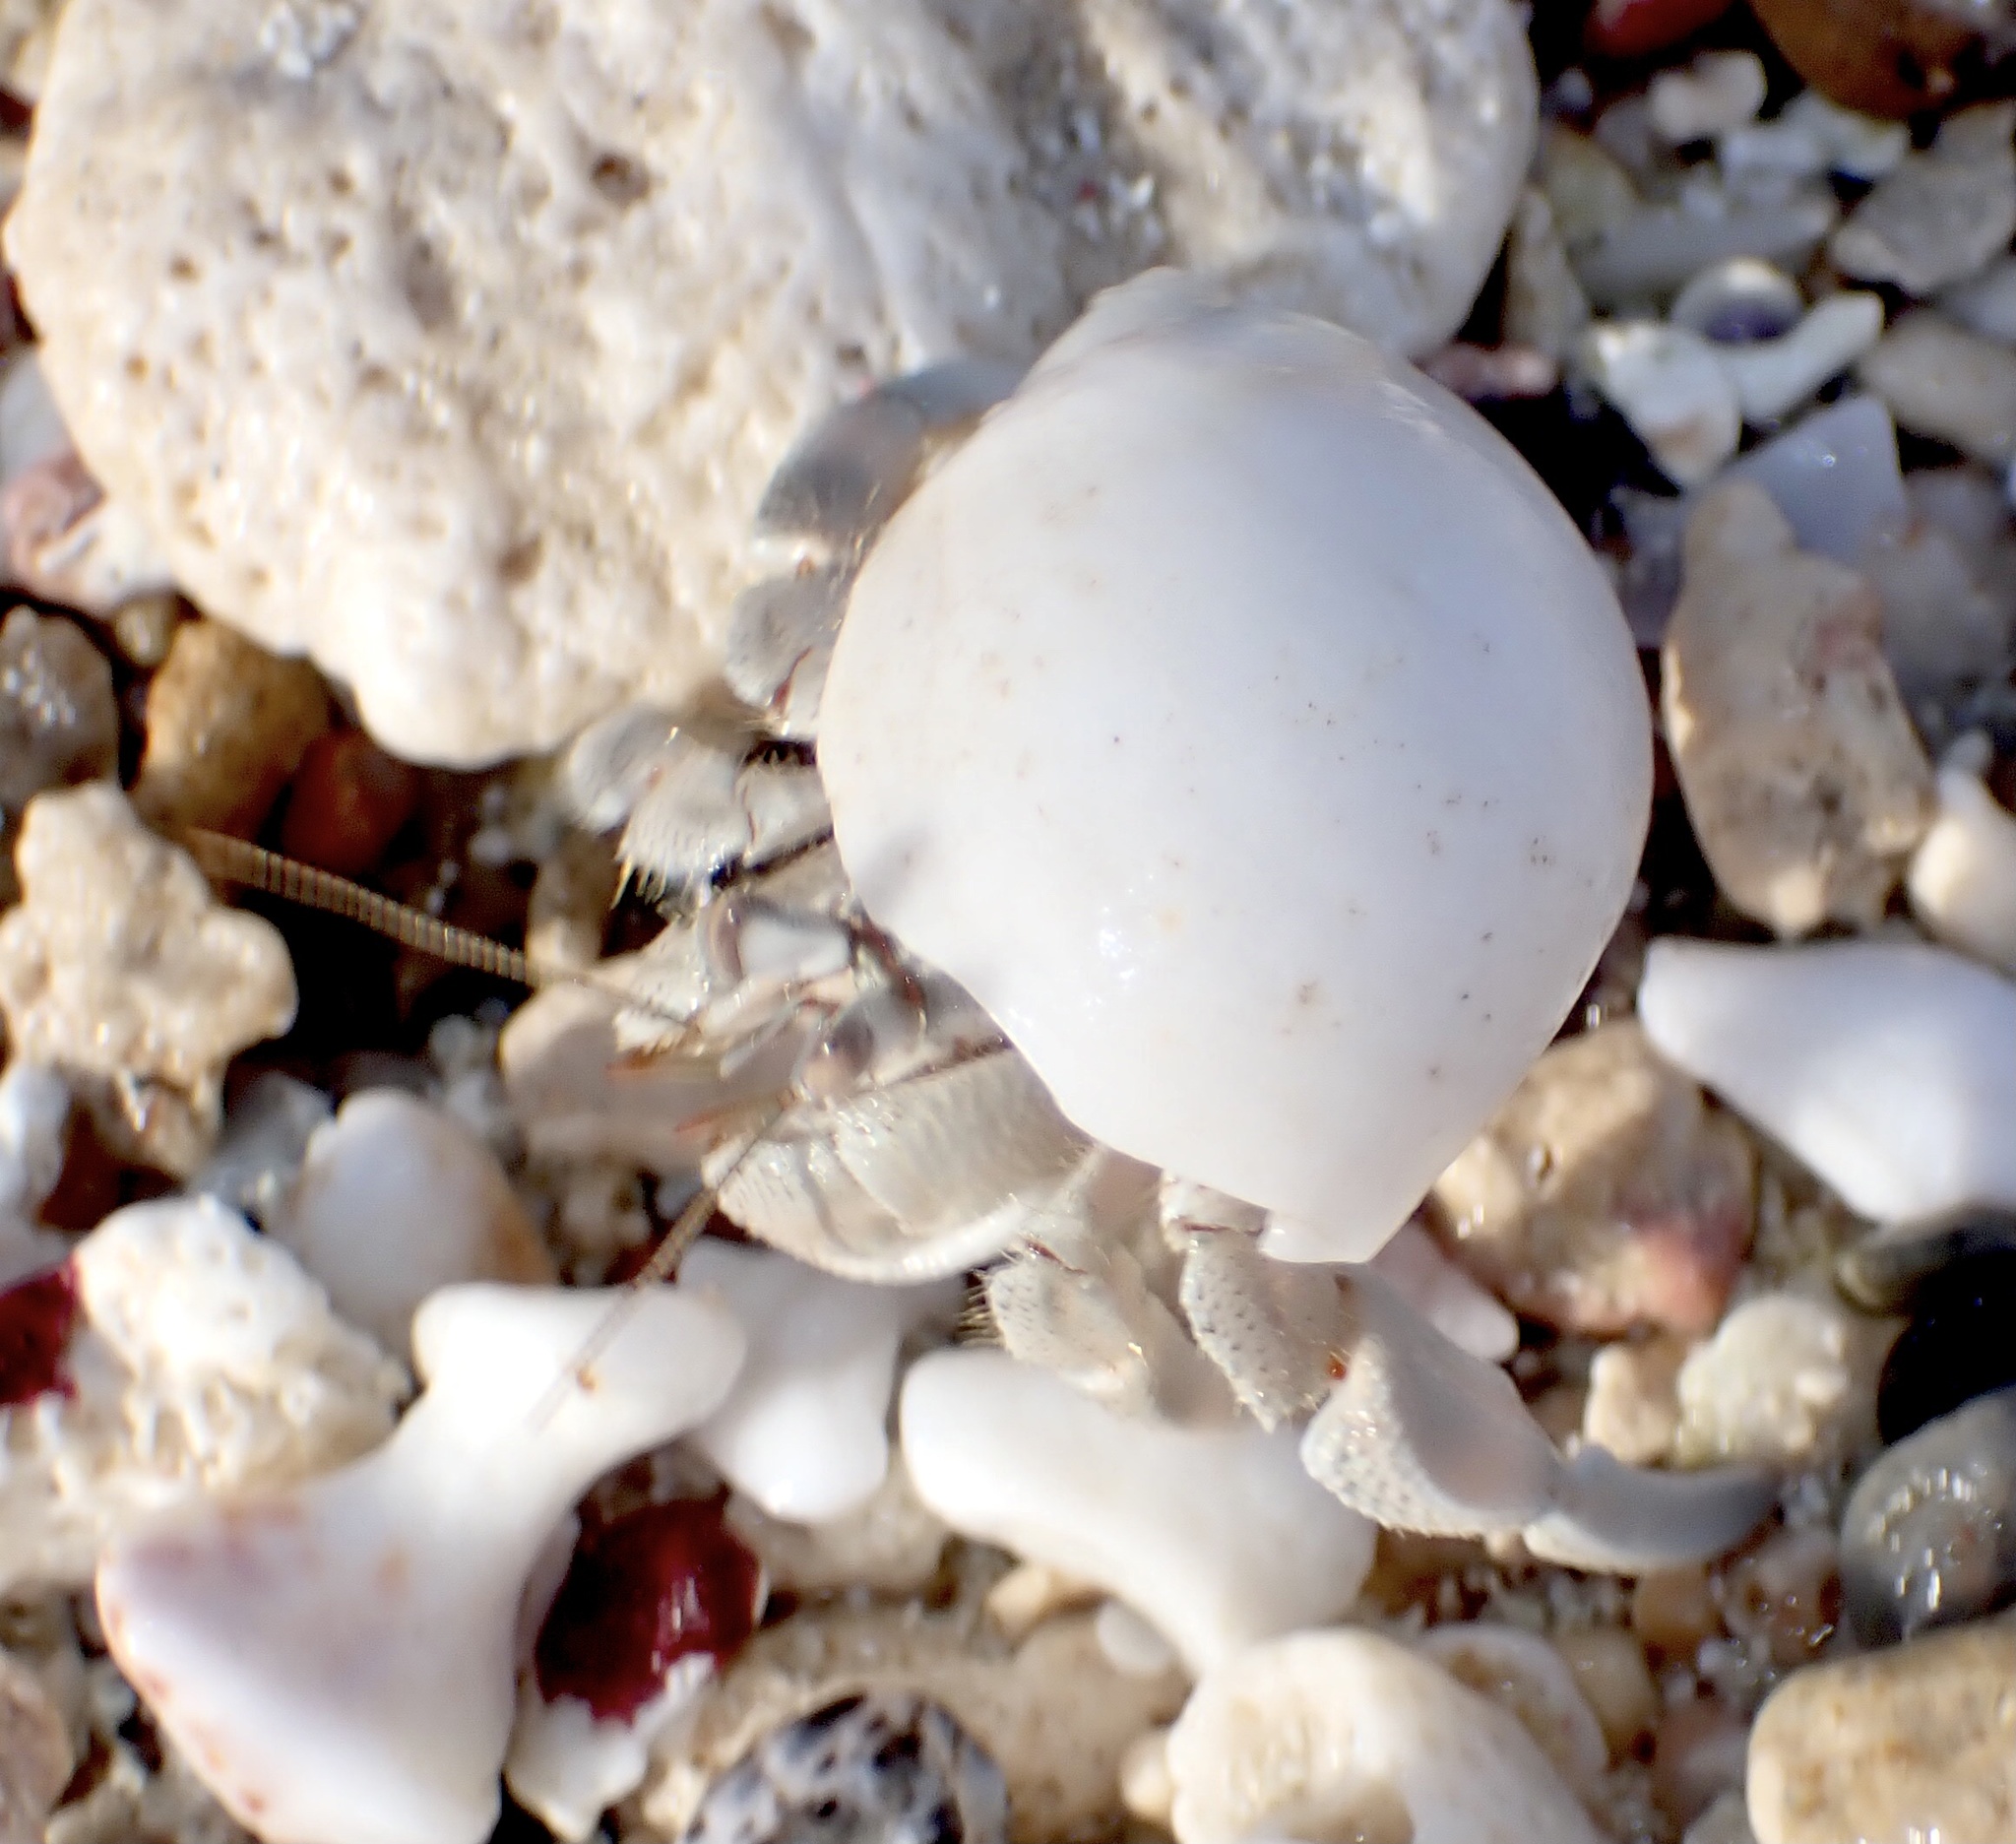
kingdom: Animalia
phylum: Arthropoda
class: Malacostraca
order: Decapoda
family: Coenobitidae
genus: Coenobita
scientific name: Coenobita scaevola
